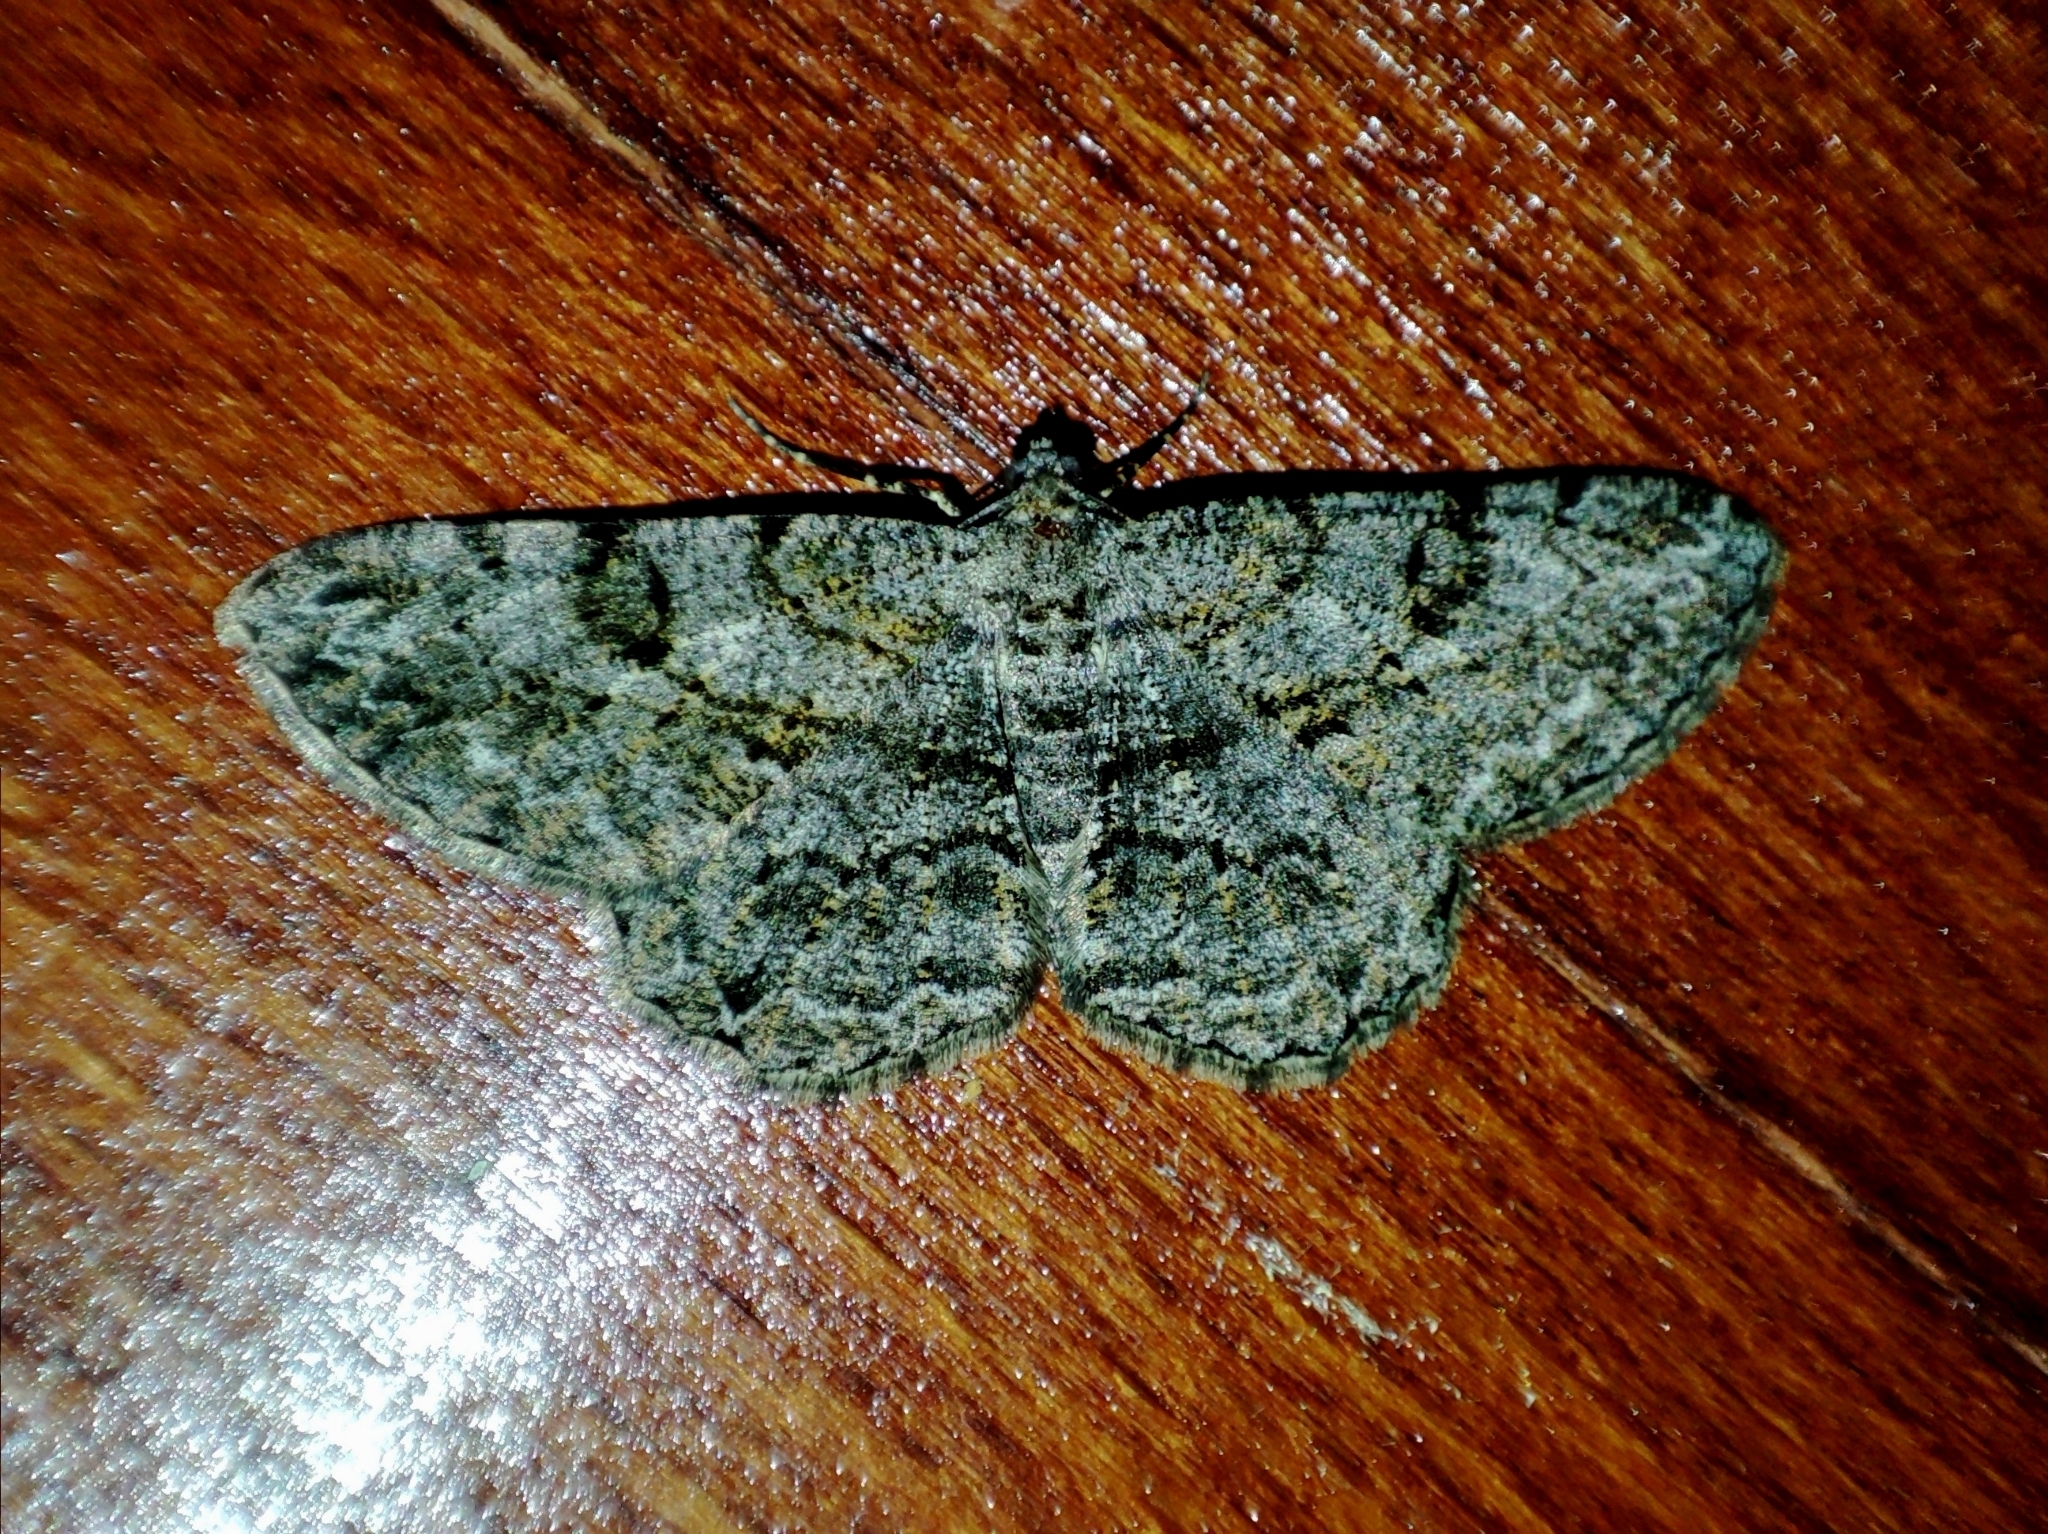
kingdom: Animalia
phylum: Arthropoda
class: Insecta
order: Lepidoptera
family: Geometridae
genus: Peribatodes
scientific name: Peribatodes rhomboidaria
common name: Willow beauty
